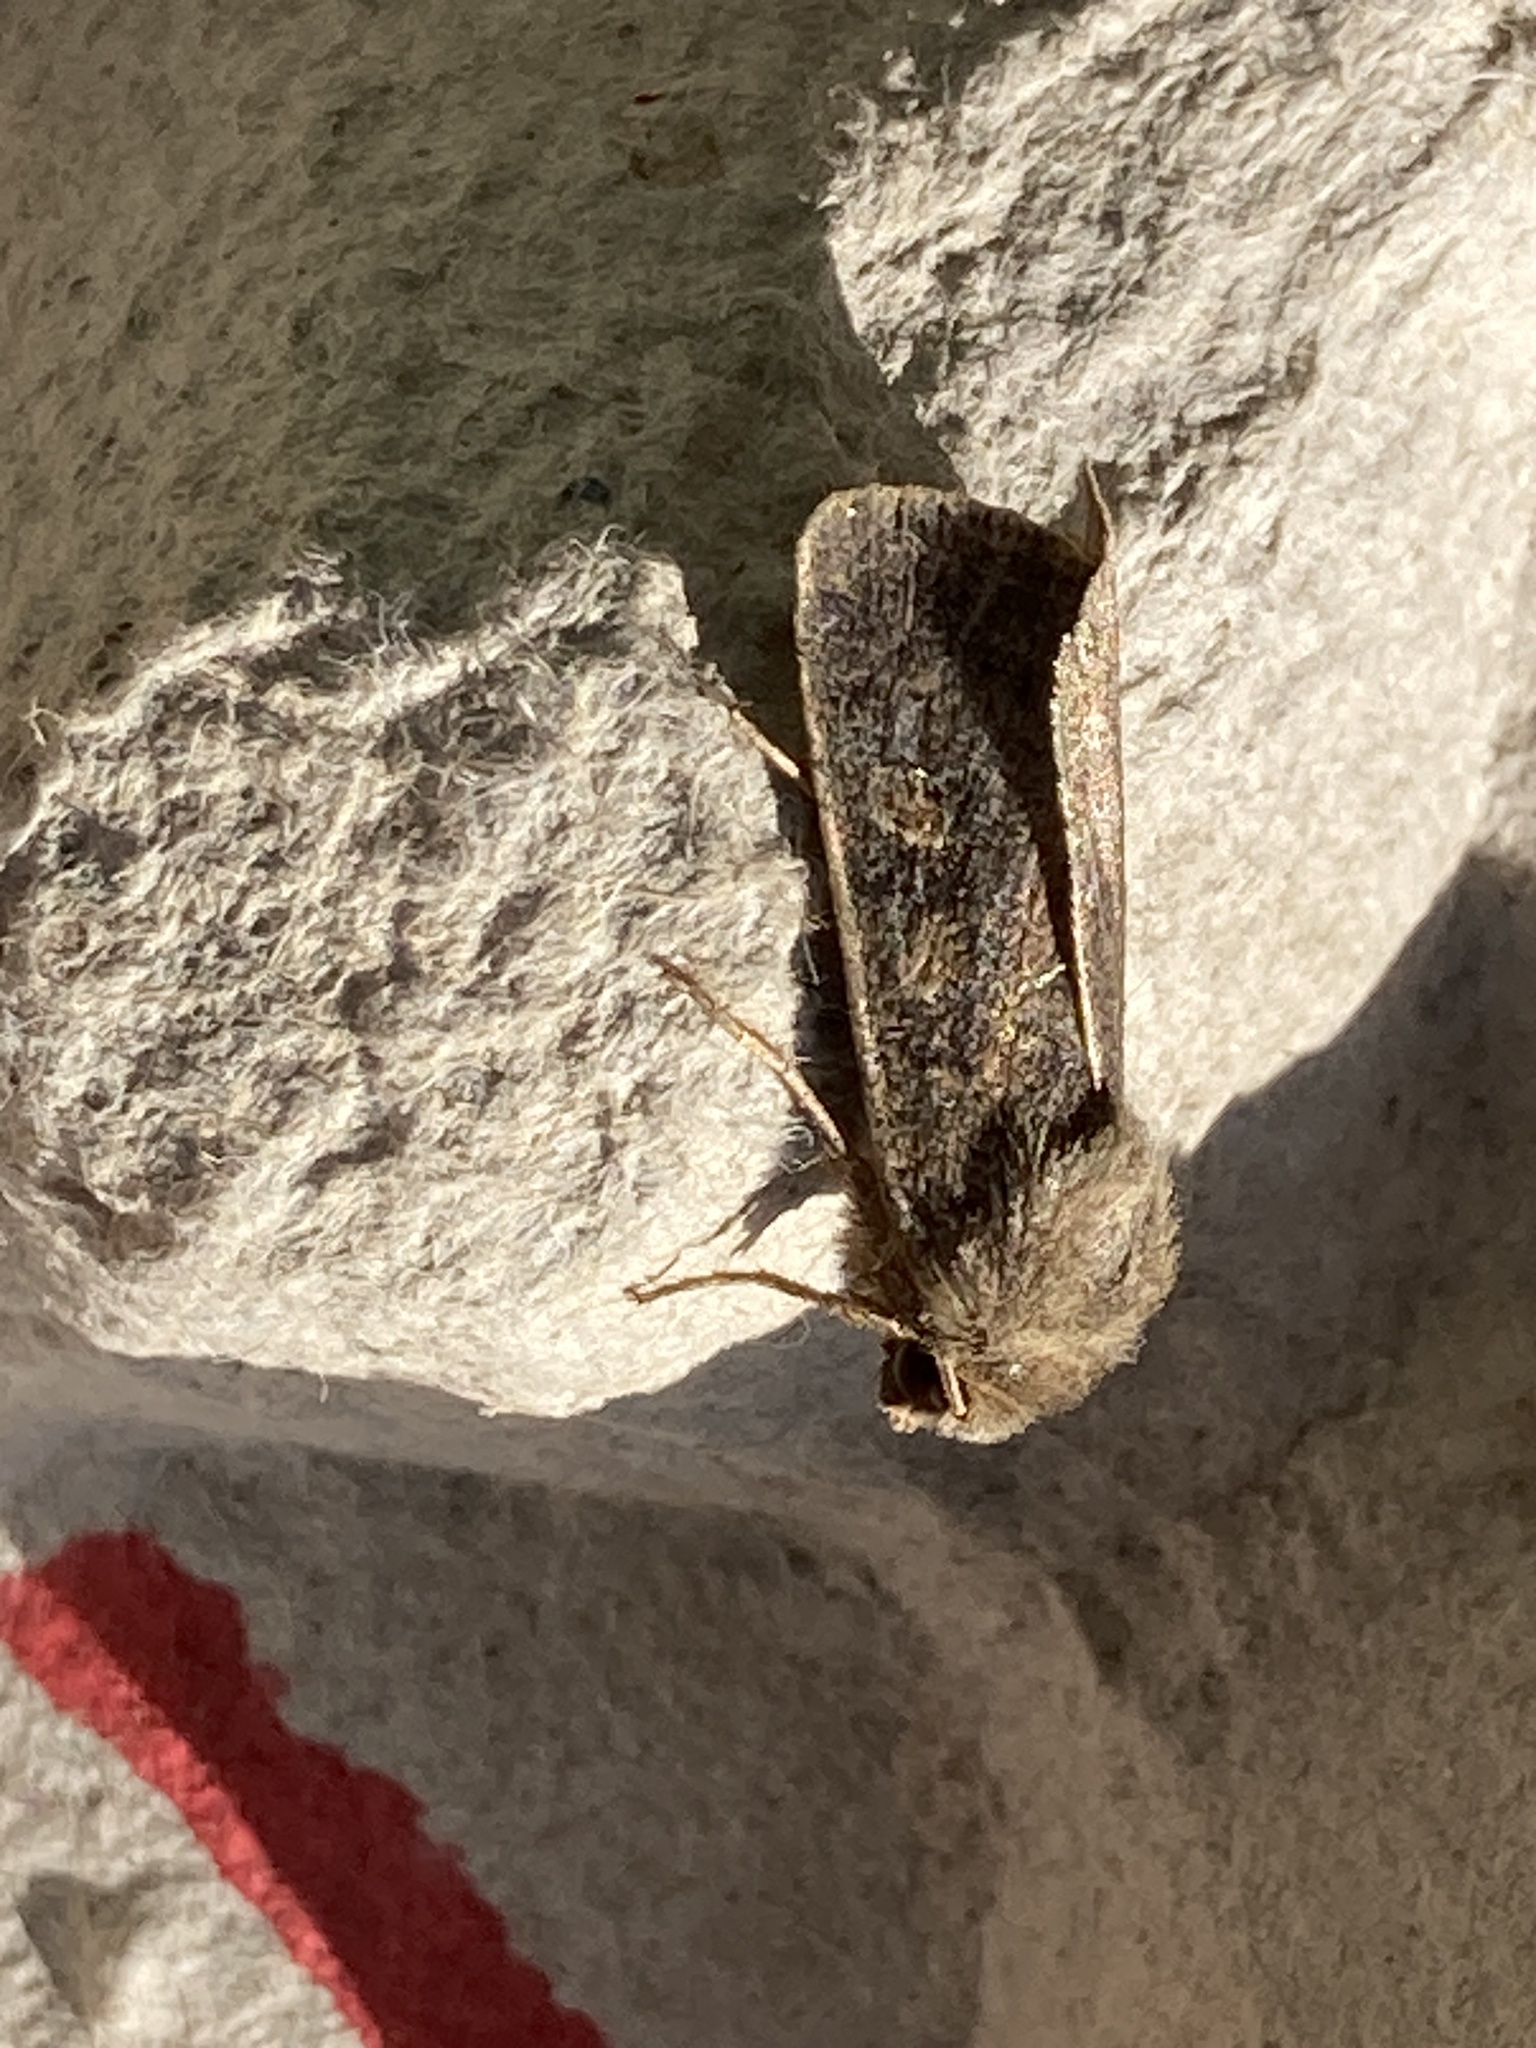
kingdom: Animalia
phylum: Arthropoda
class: Insecta
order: Lepidoptera
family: Noctuidae
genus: Xestia
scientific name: Xestia xanthographa
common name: Square-spot rustic
